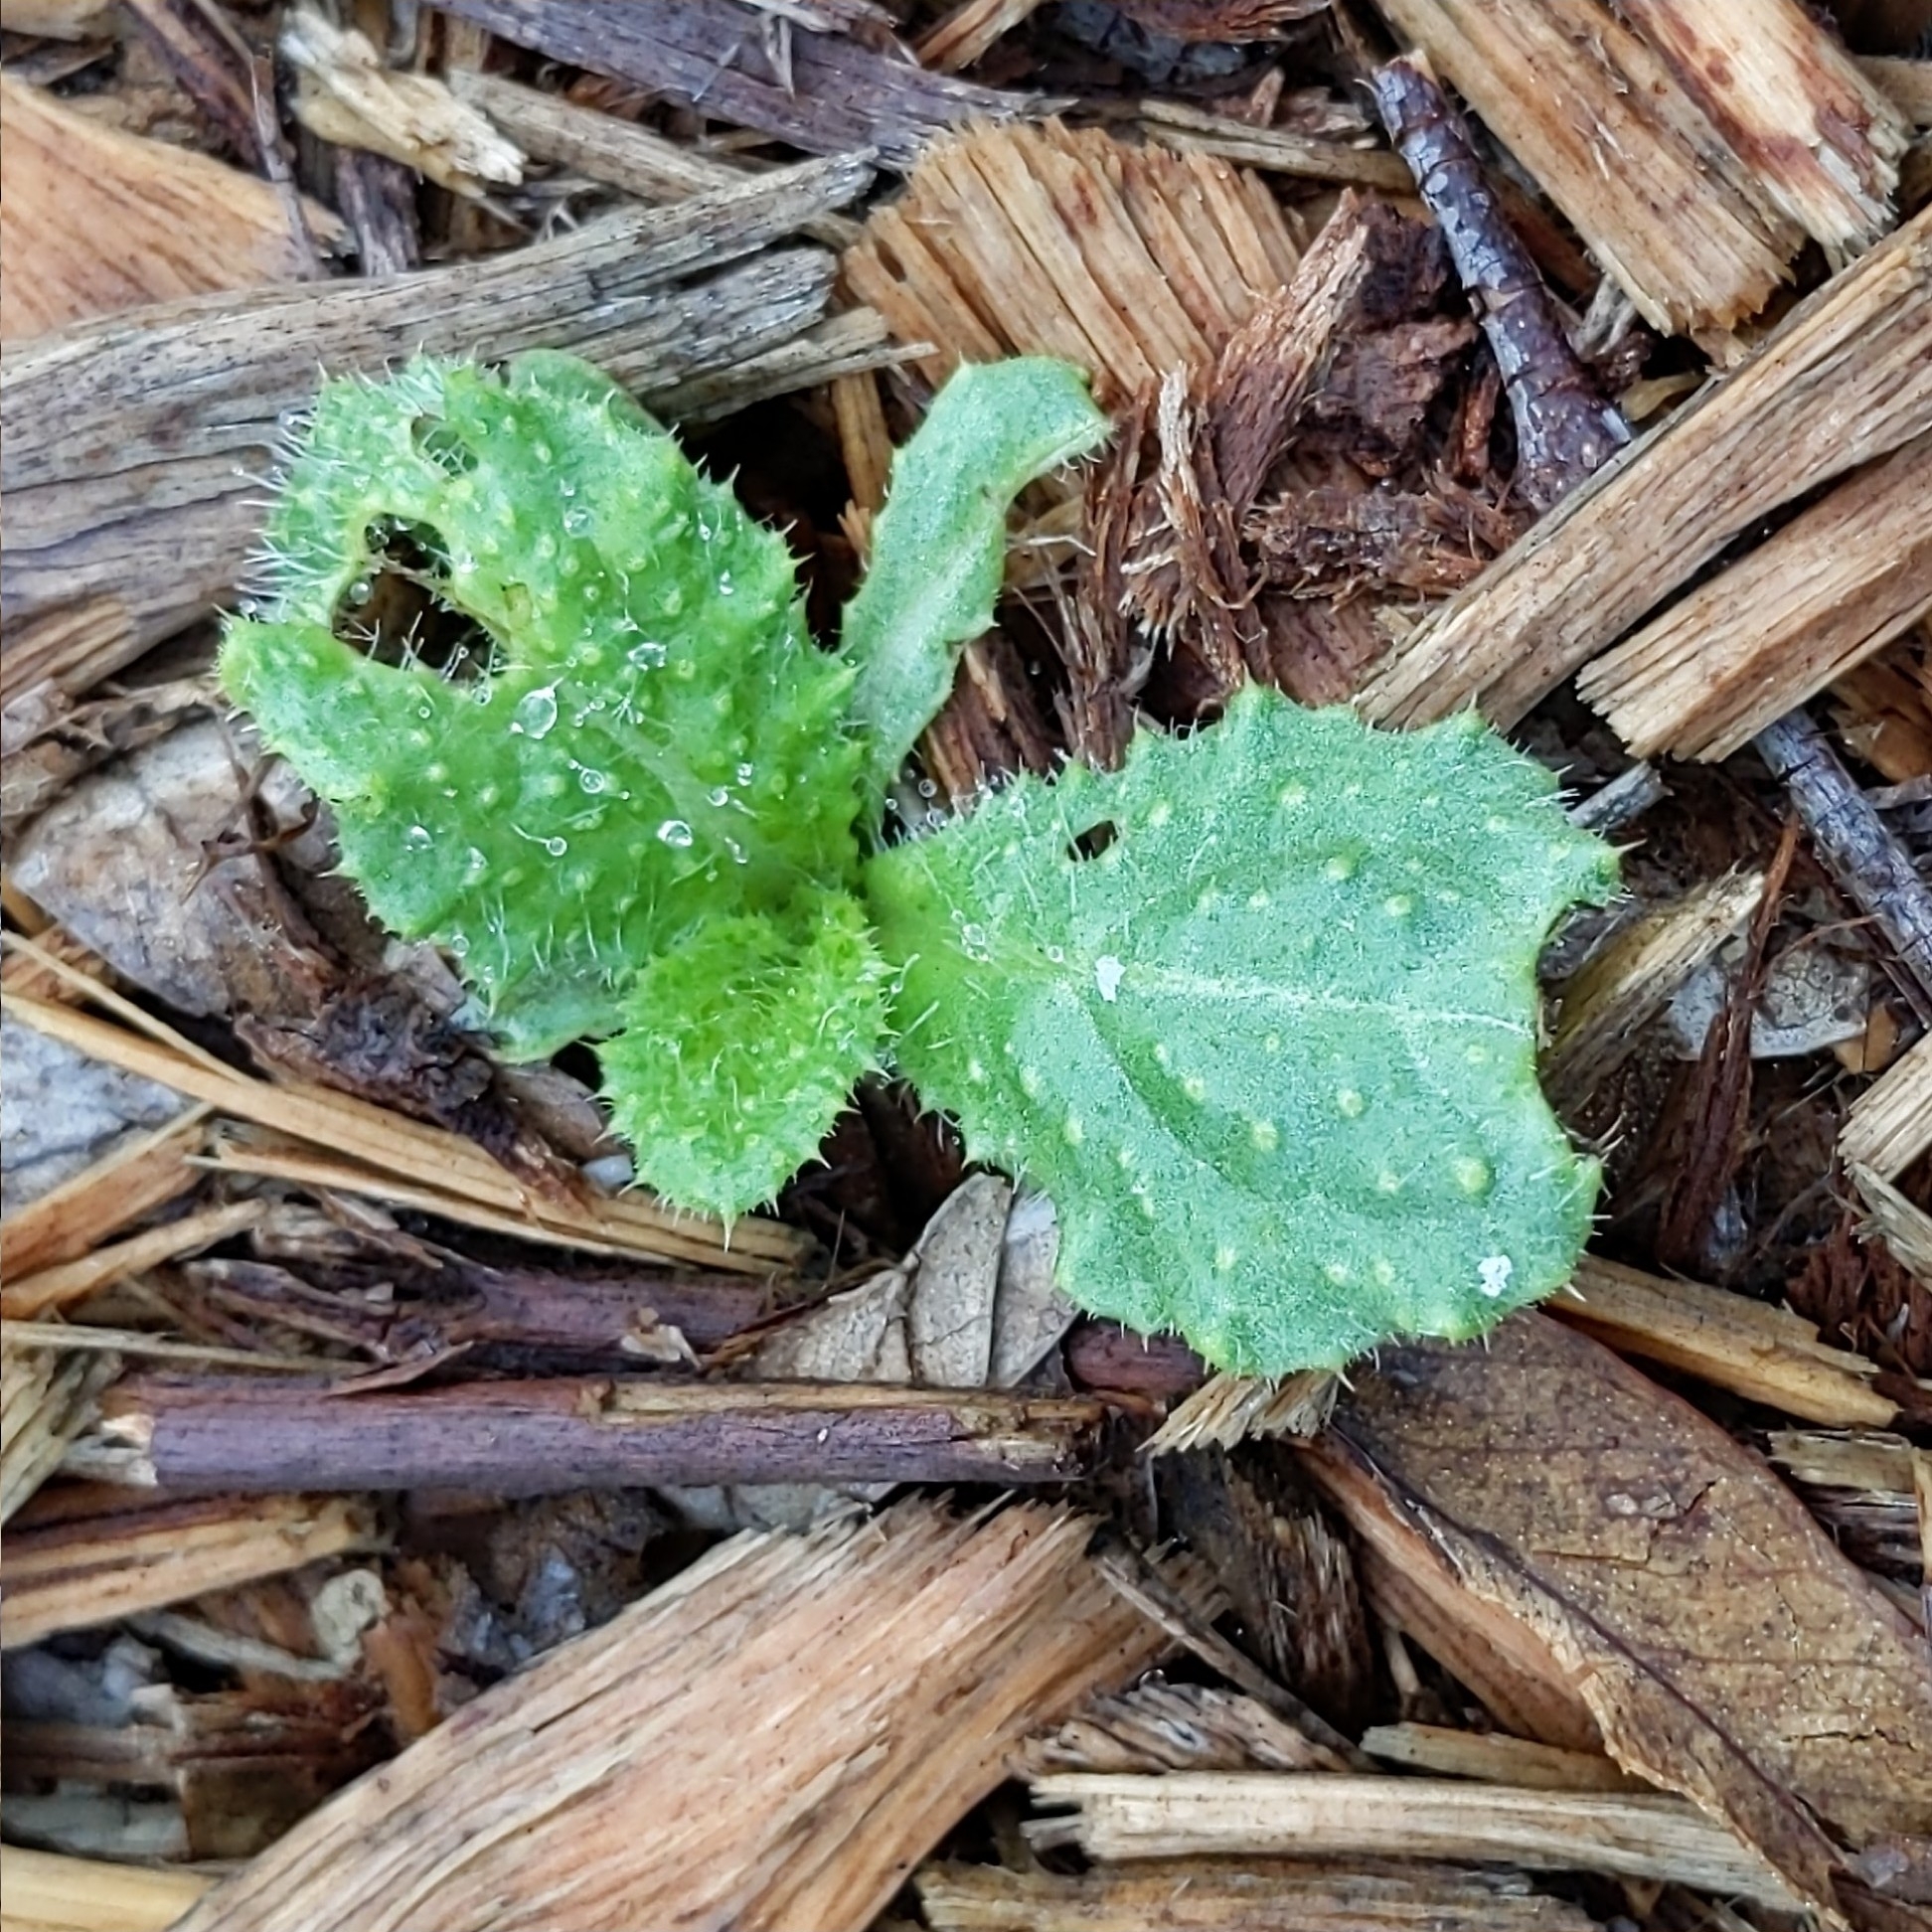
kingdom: Plantae
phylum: Tracheophyta
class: Magnoliopsida
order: Asterales
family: Asteraceae
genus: Helminthotheca
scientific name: Helminthotheca echioides
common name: Ox-tongue
